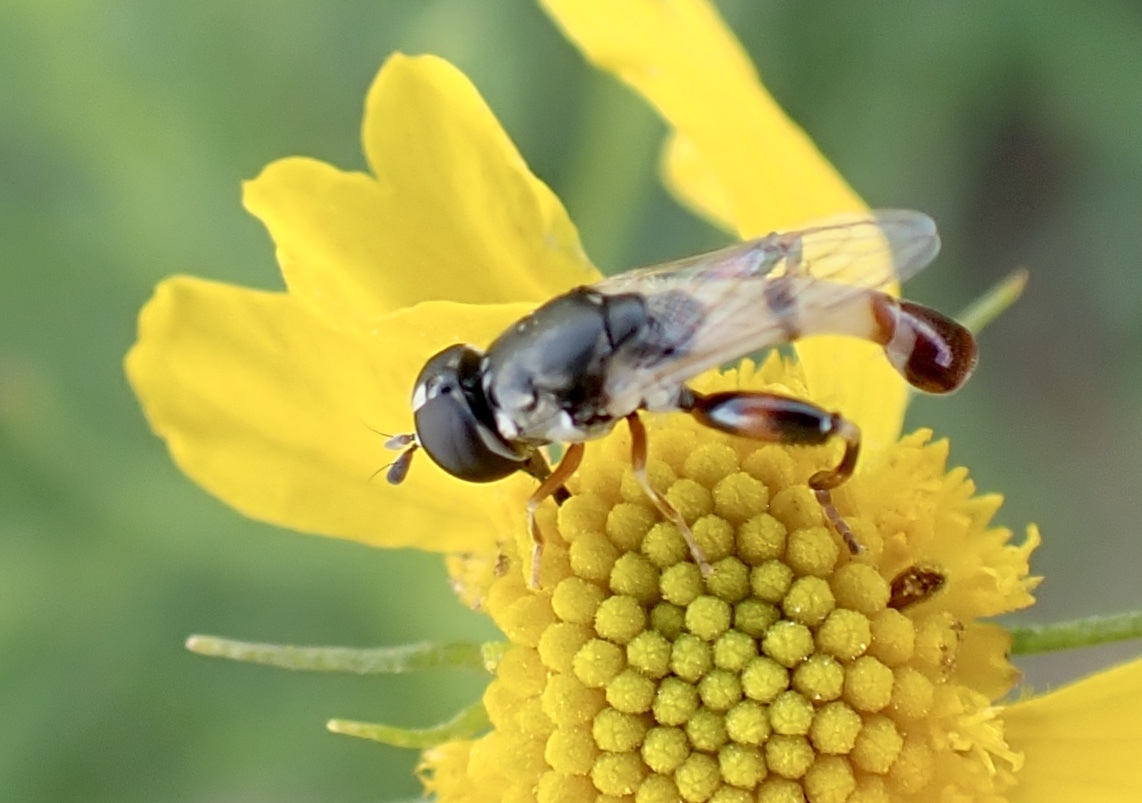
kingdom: Animalia
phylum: Arthropoda
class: Insecta
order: Diptera
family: Syrphidae
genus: Syritta
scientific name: Syritta flaviventris
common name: Syrphid fly
